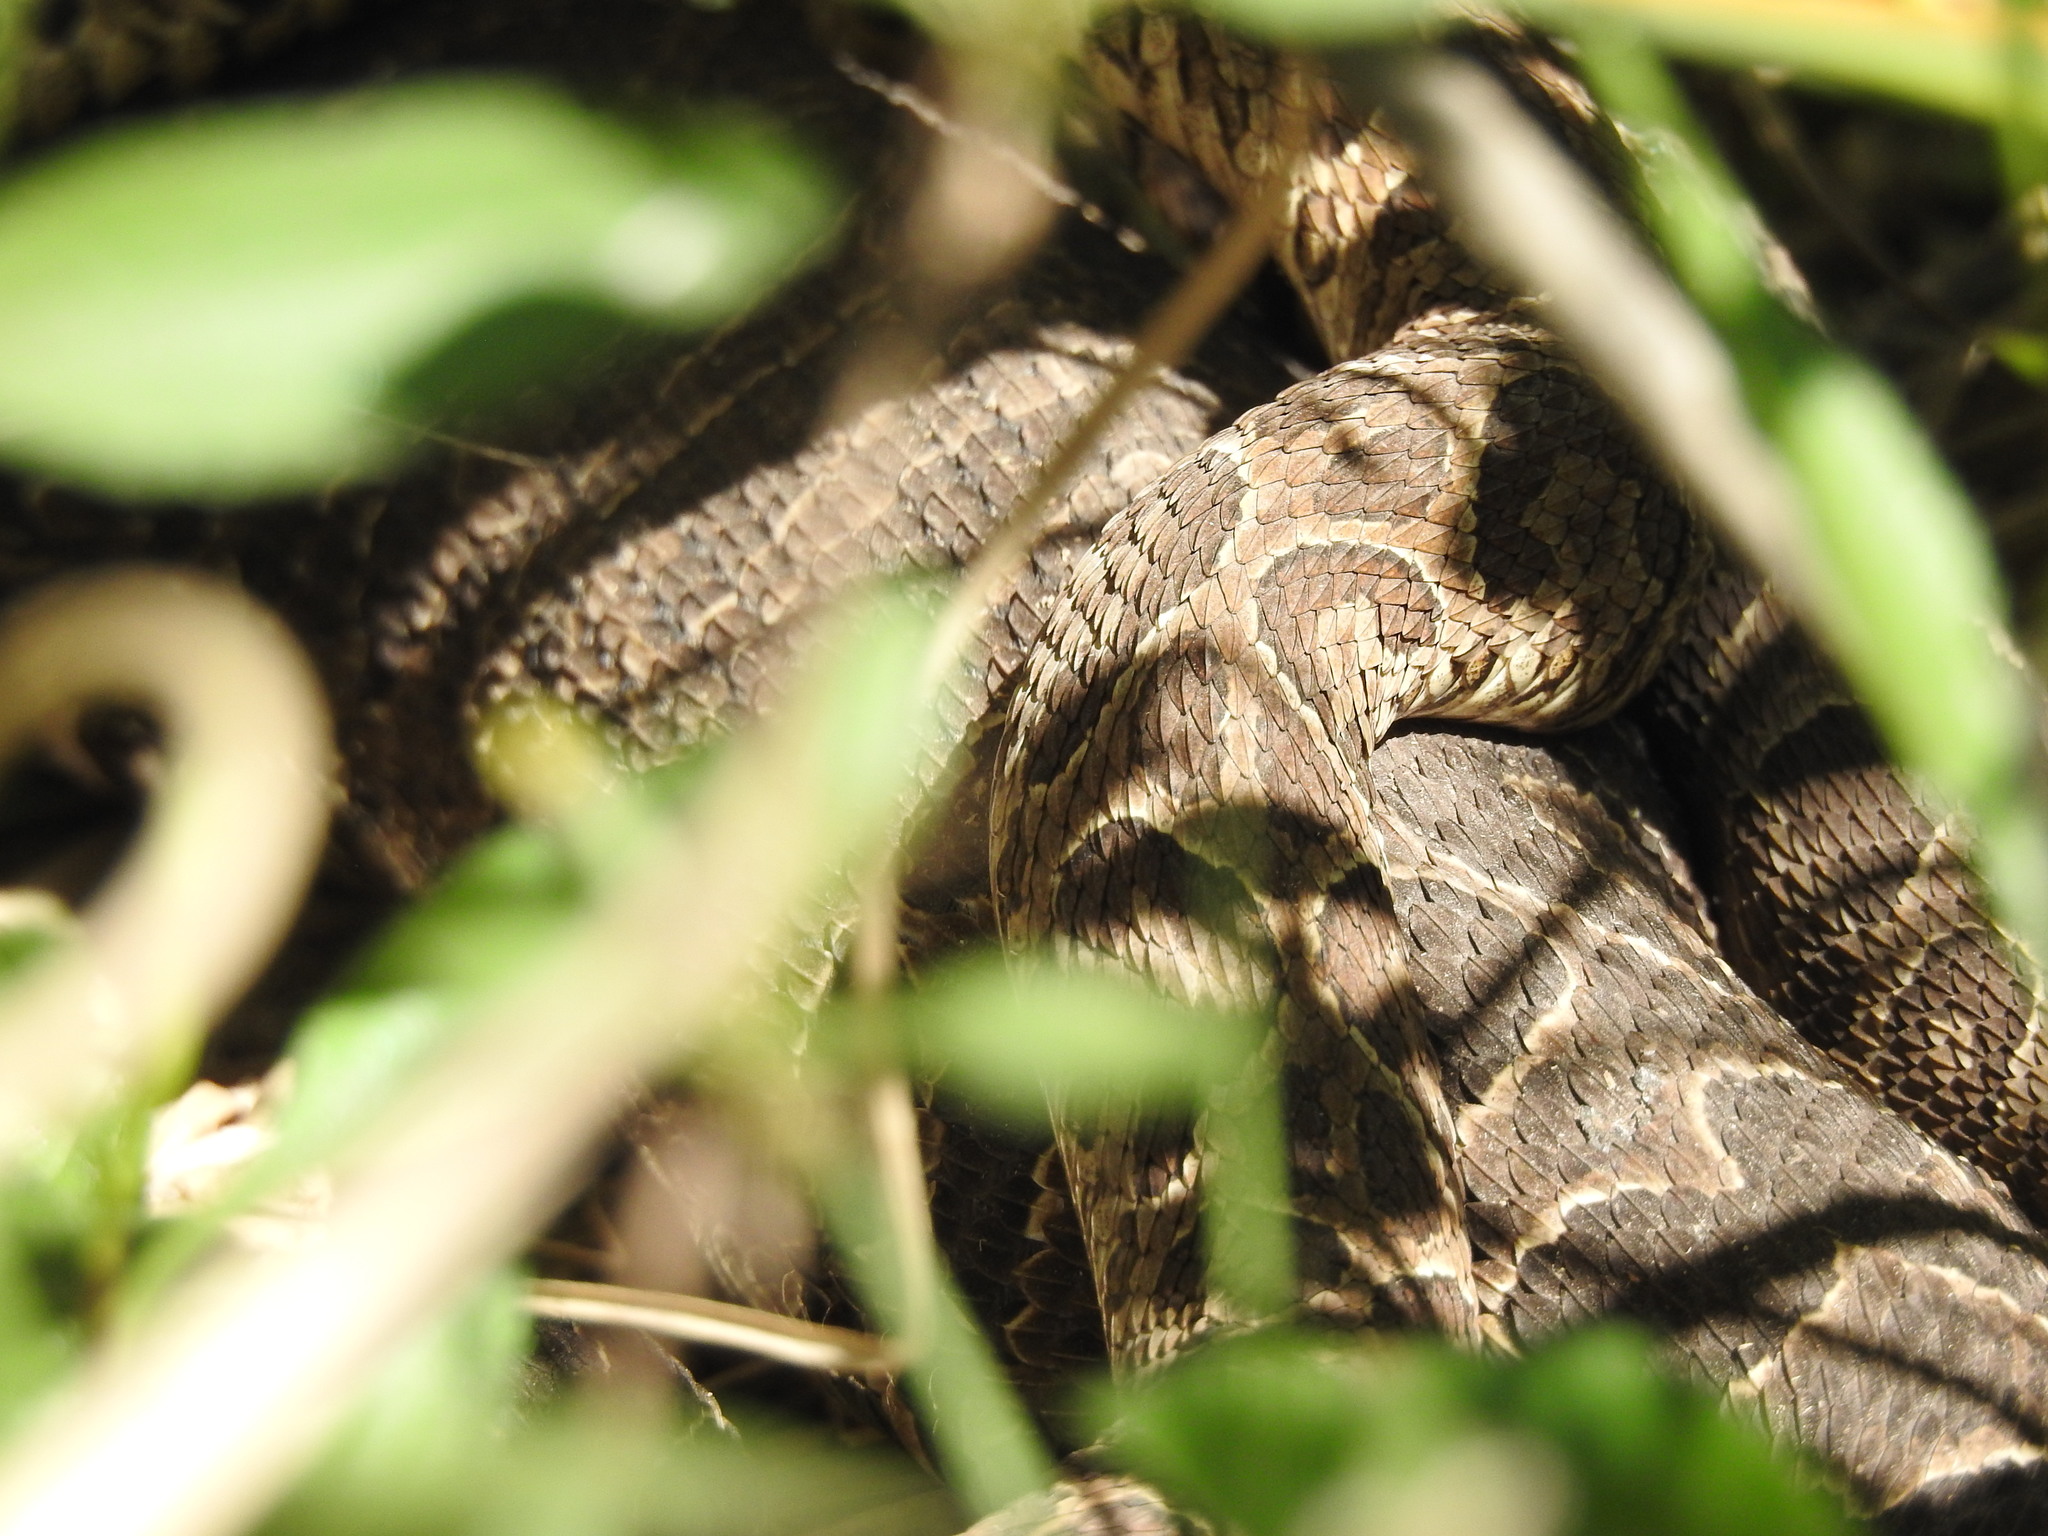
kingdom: Animalia
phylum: Chordata
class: Squamata
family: Viperidae
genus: Bothrops
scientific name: Bothrops alternatus
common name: Urutu
